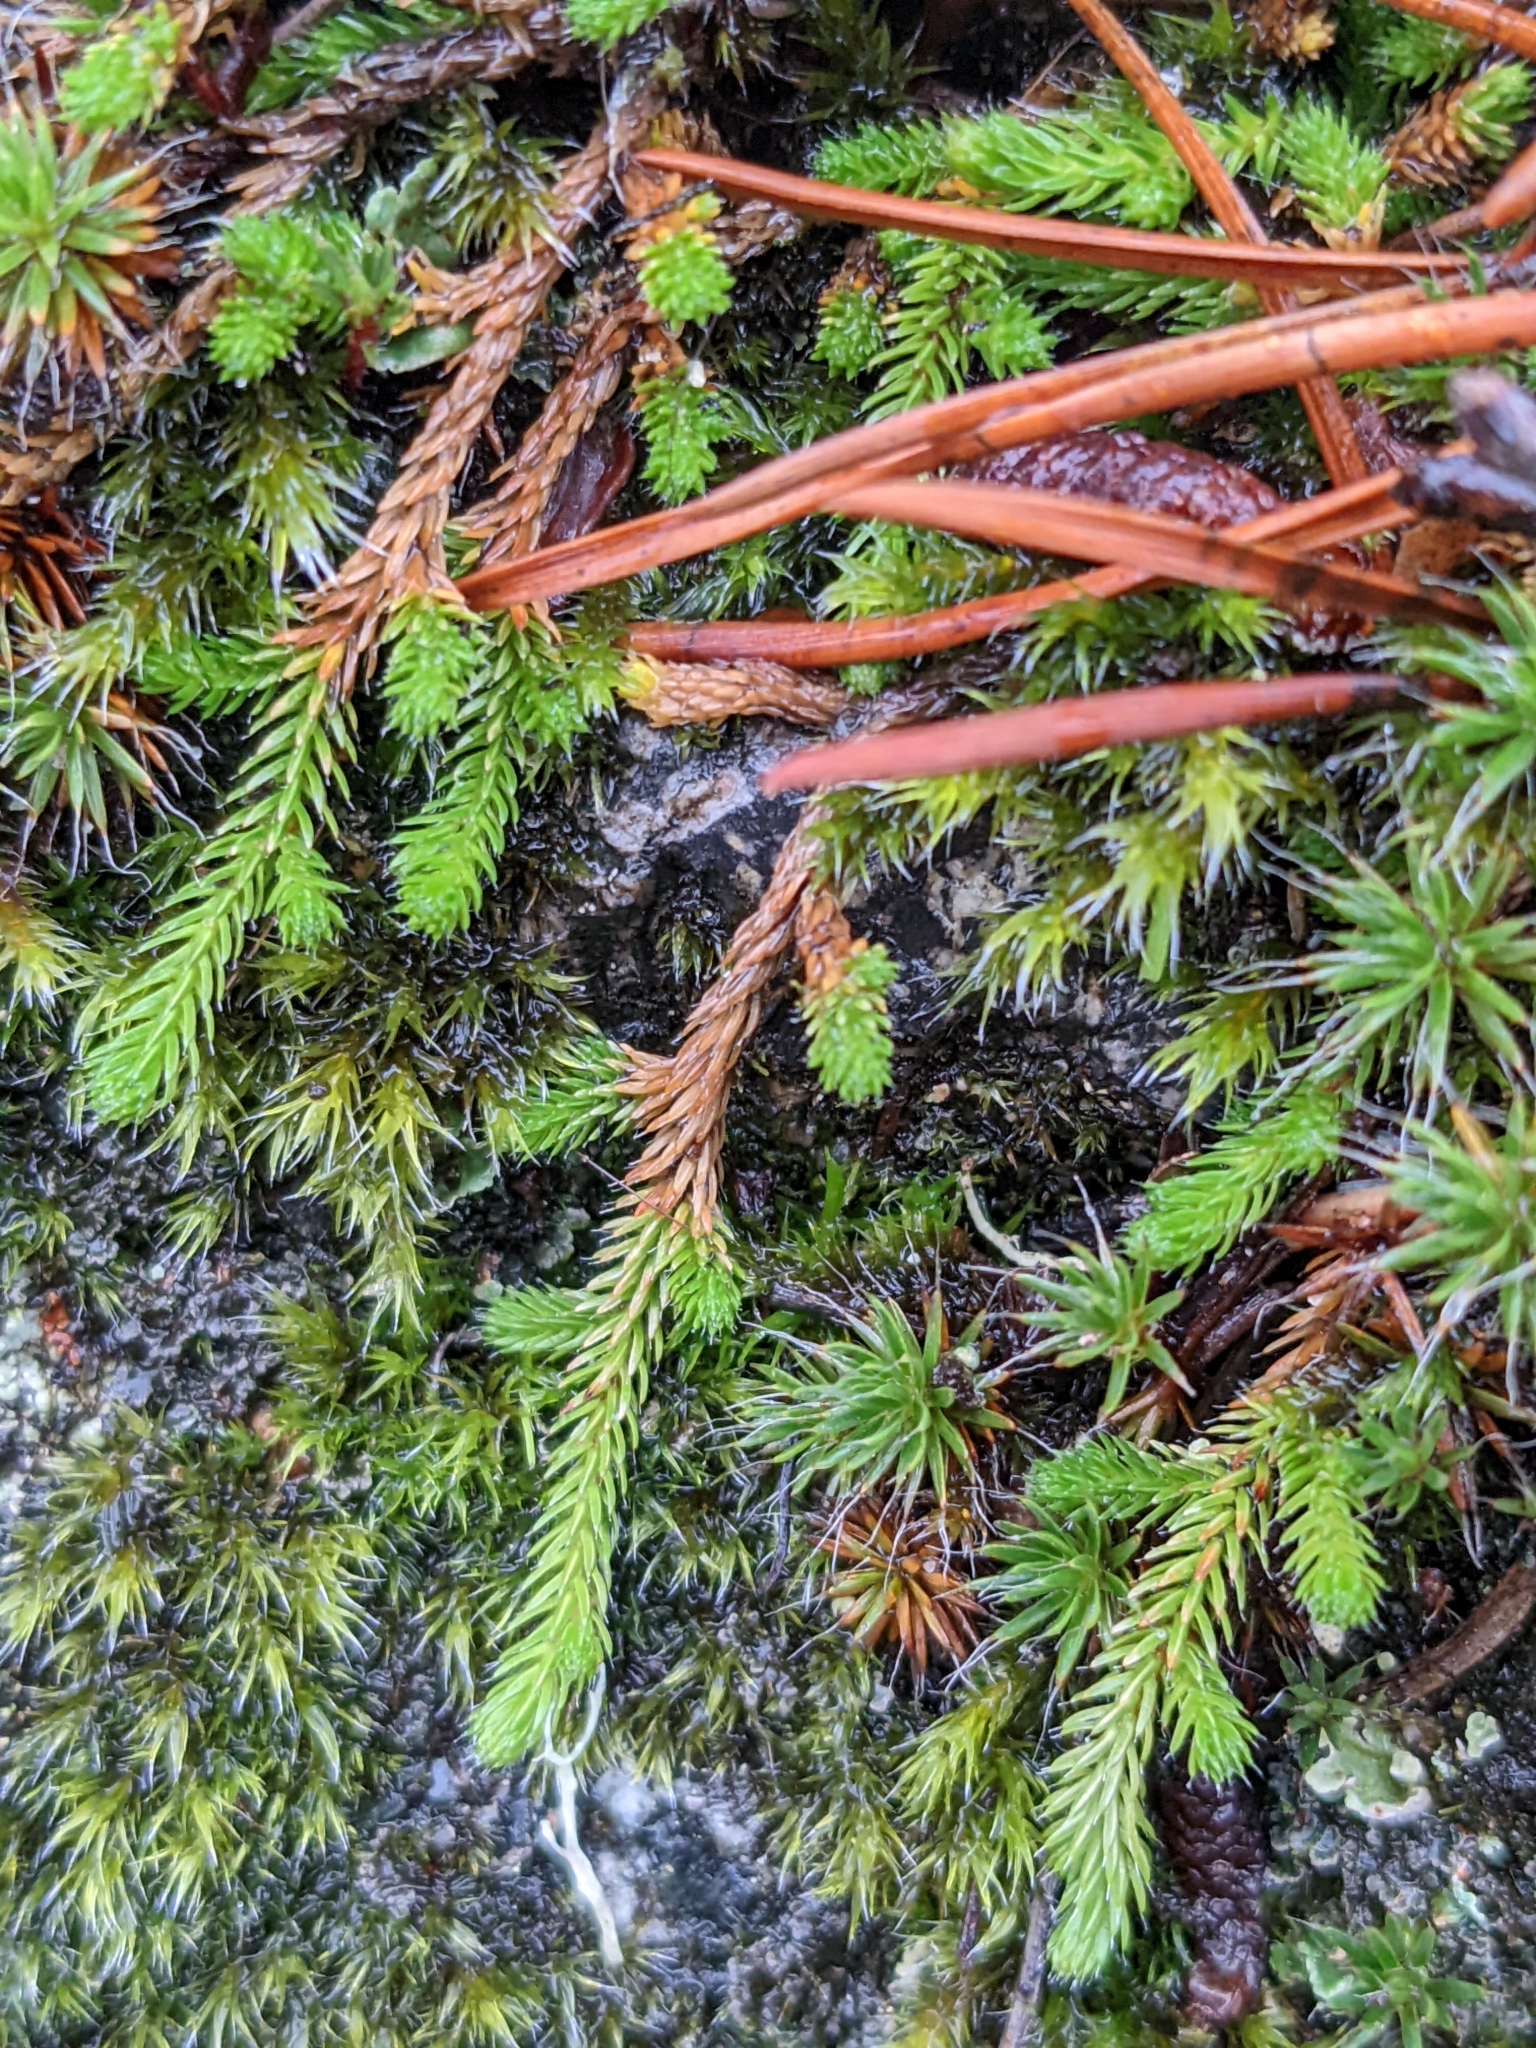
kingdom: Plantae
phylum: Tracheophyta
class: Lycopodiopsida
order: Selaginellales
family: Selaginellaceae
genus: Selaginella
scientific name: Selaginella wallacei
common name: Wallace's selaginella
